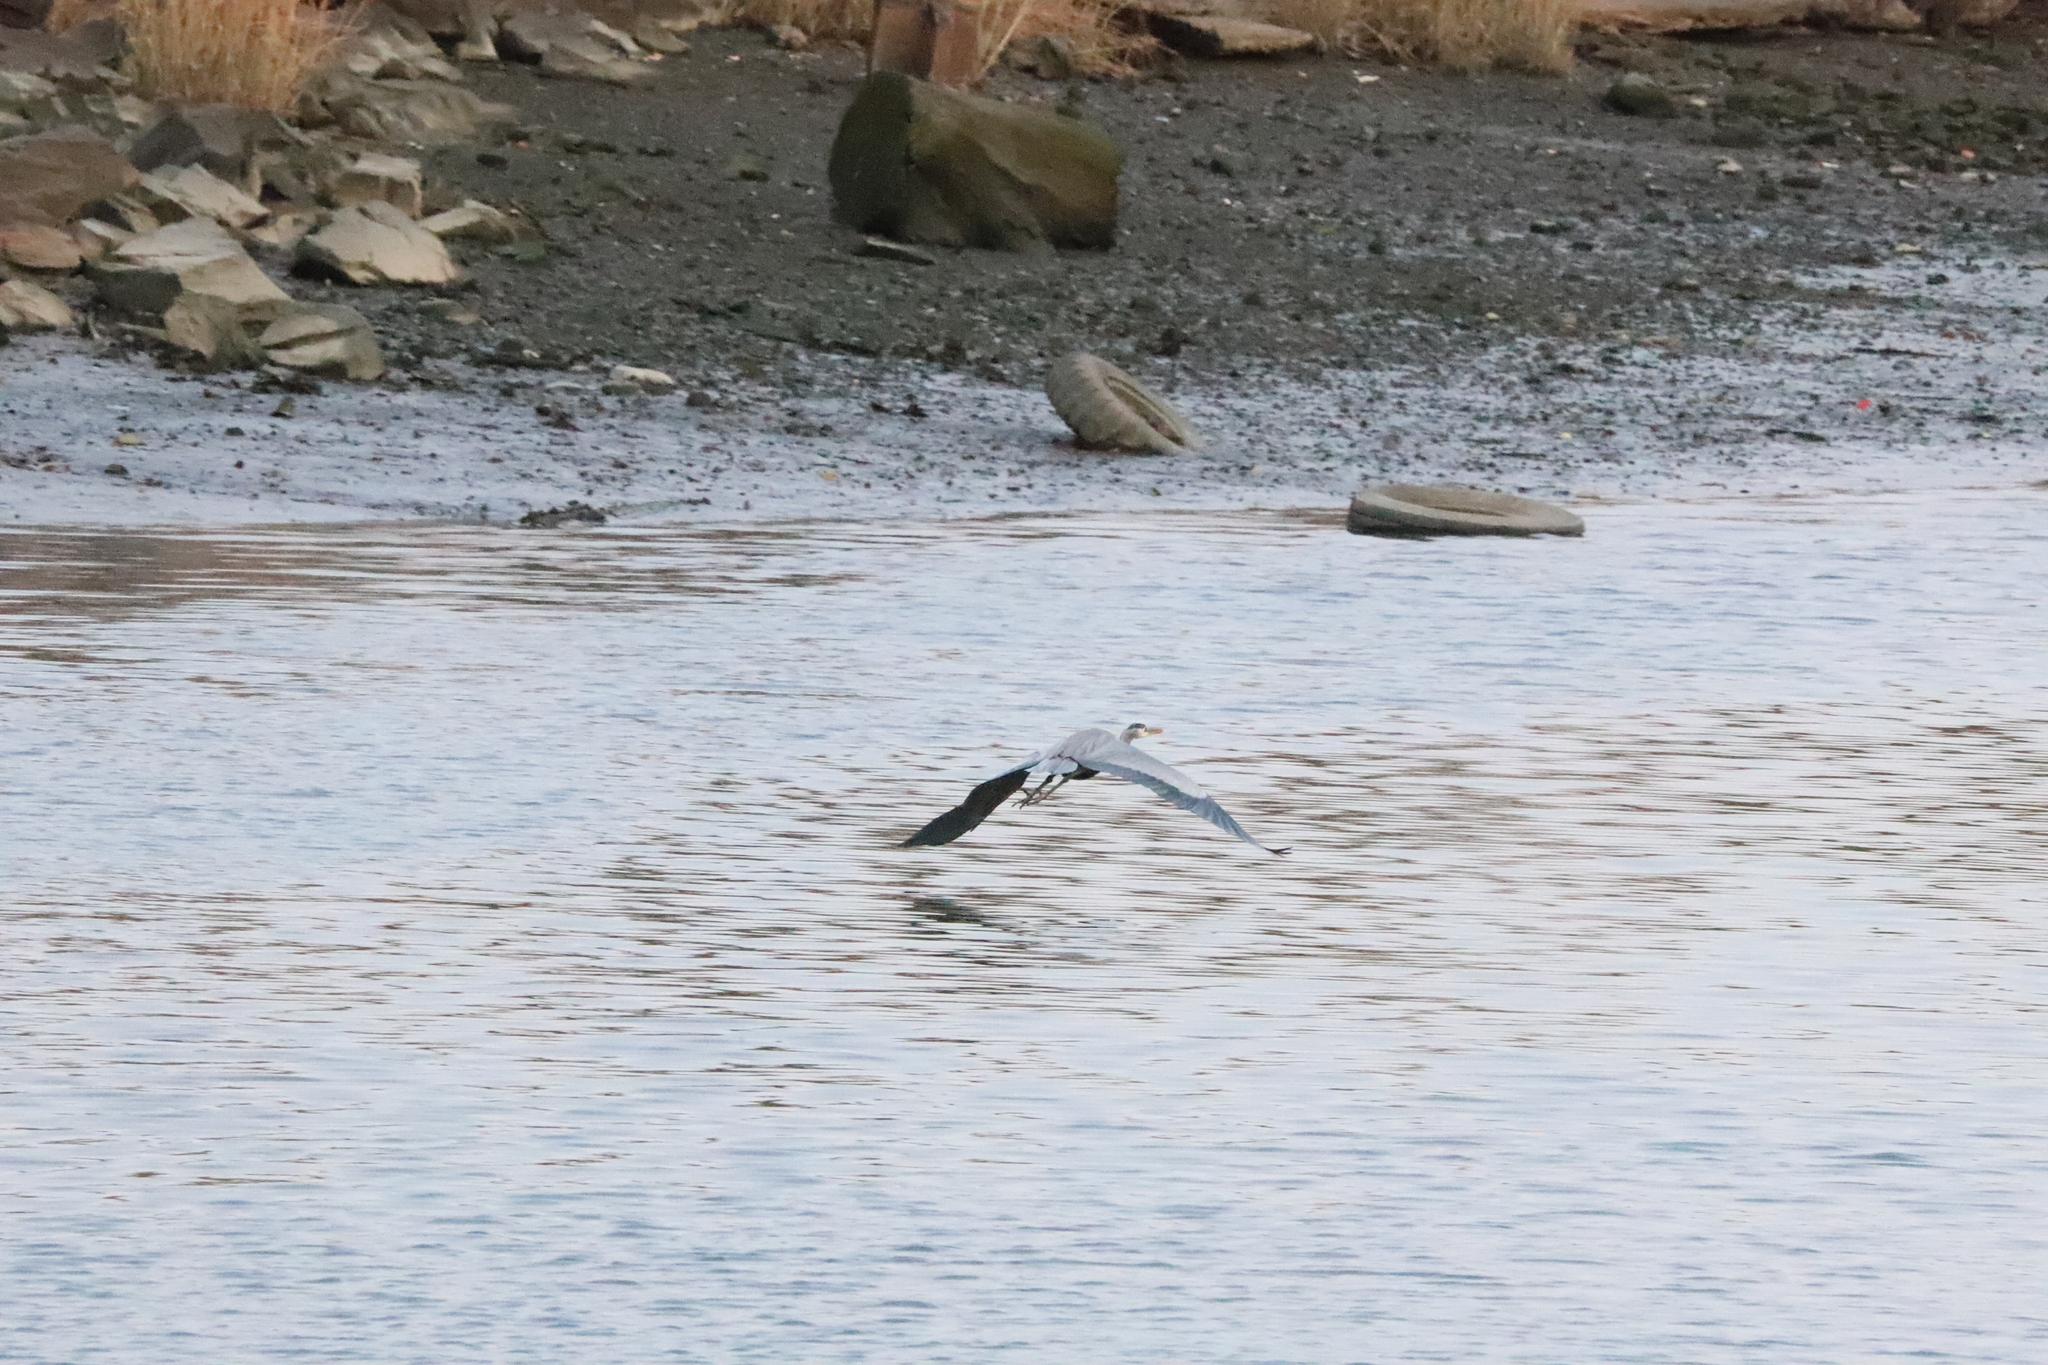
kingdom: Animalia
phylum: Chordata
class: Aves
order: Pelecaniformes
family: Ardeidae
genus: Ardea
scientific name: Ardea herodias
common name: Great blue heron
